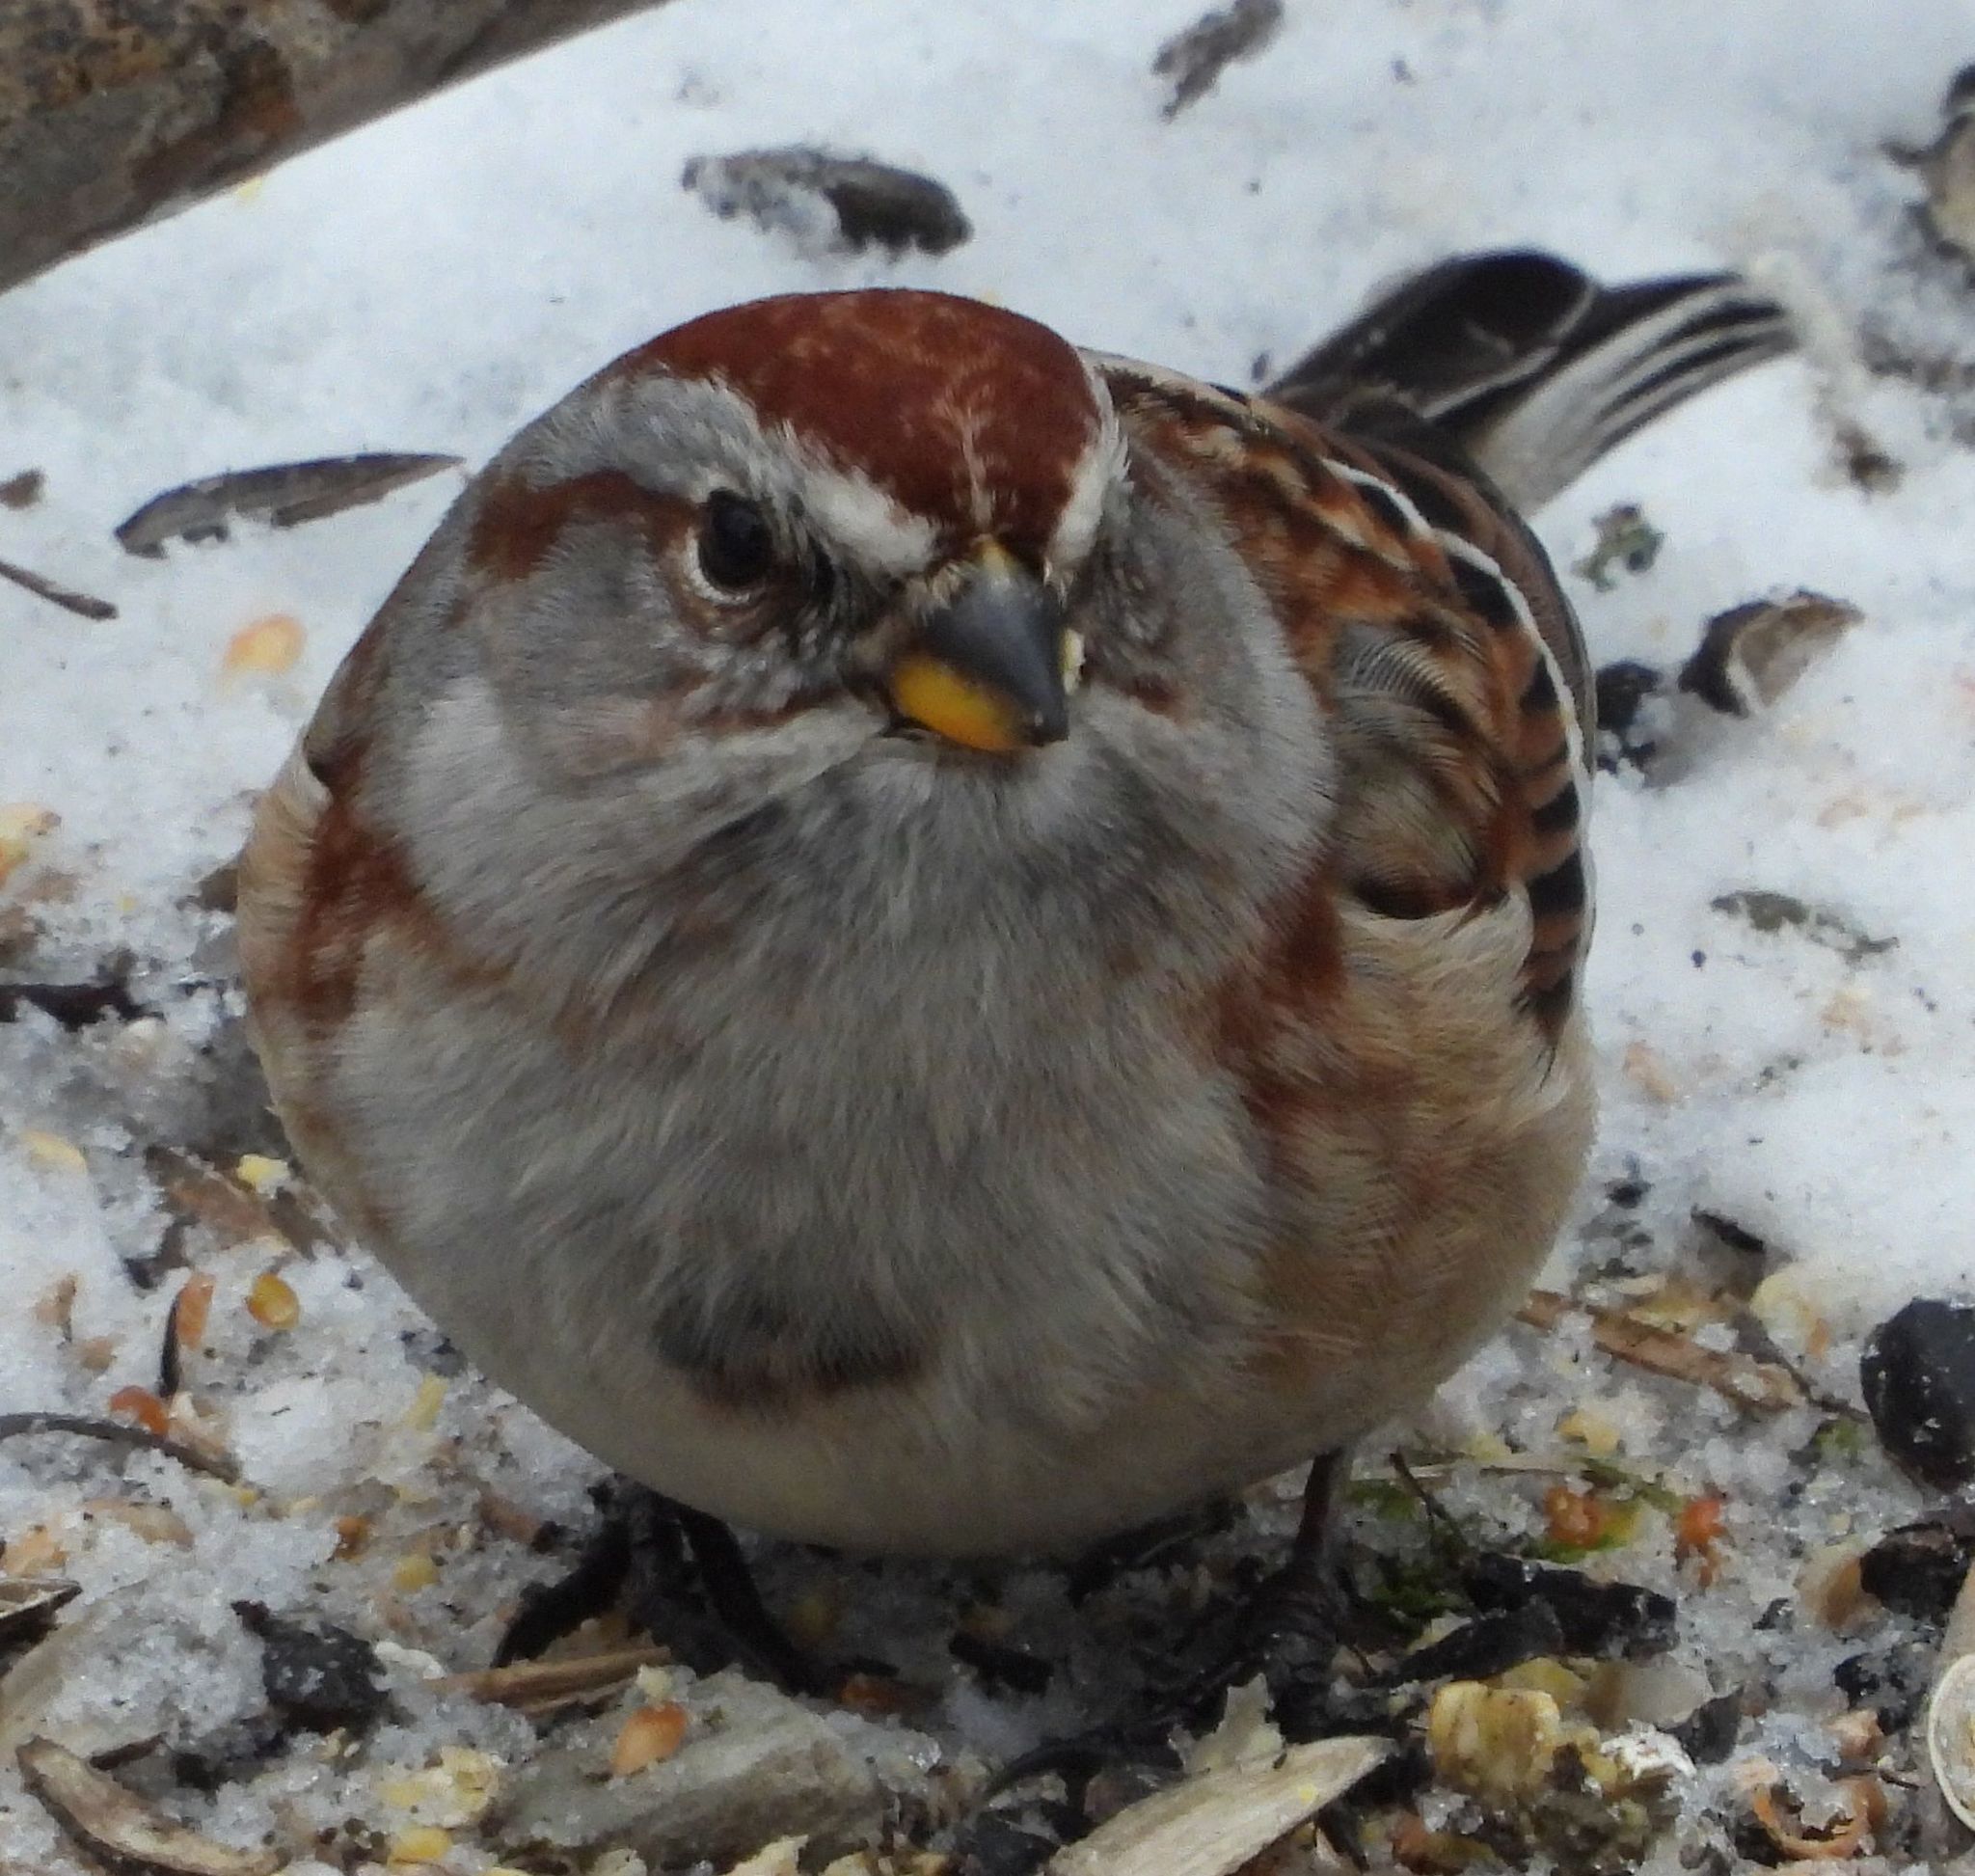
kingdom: Animalia
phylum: Chordata
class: Aves
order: Passeriformes
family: Passerellidae
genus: Spizelloides
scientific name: Spizelloides arborea
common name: American tree sparrow
